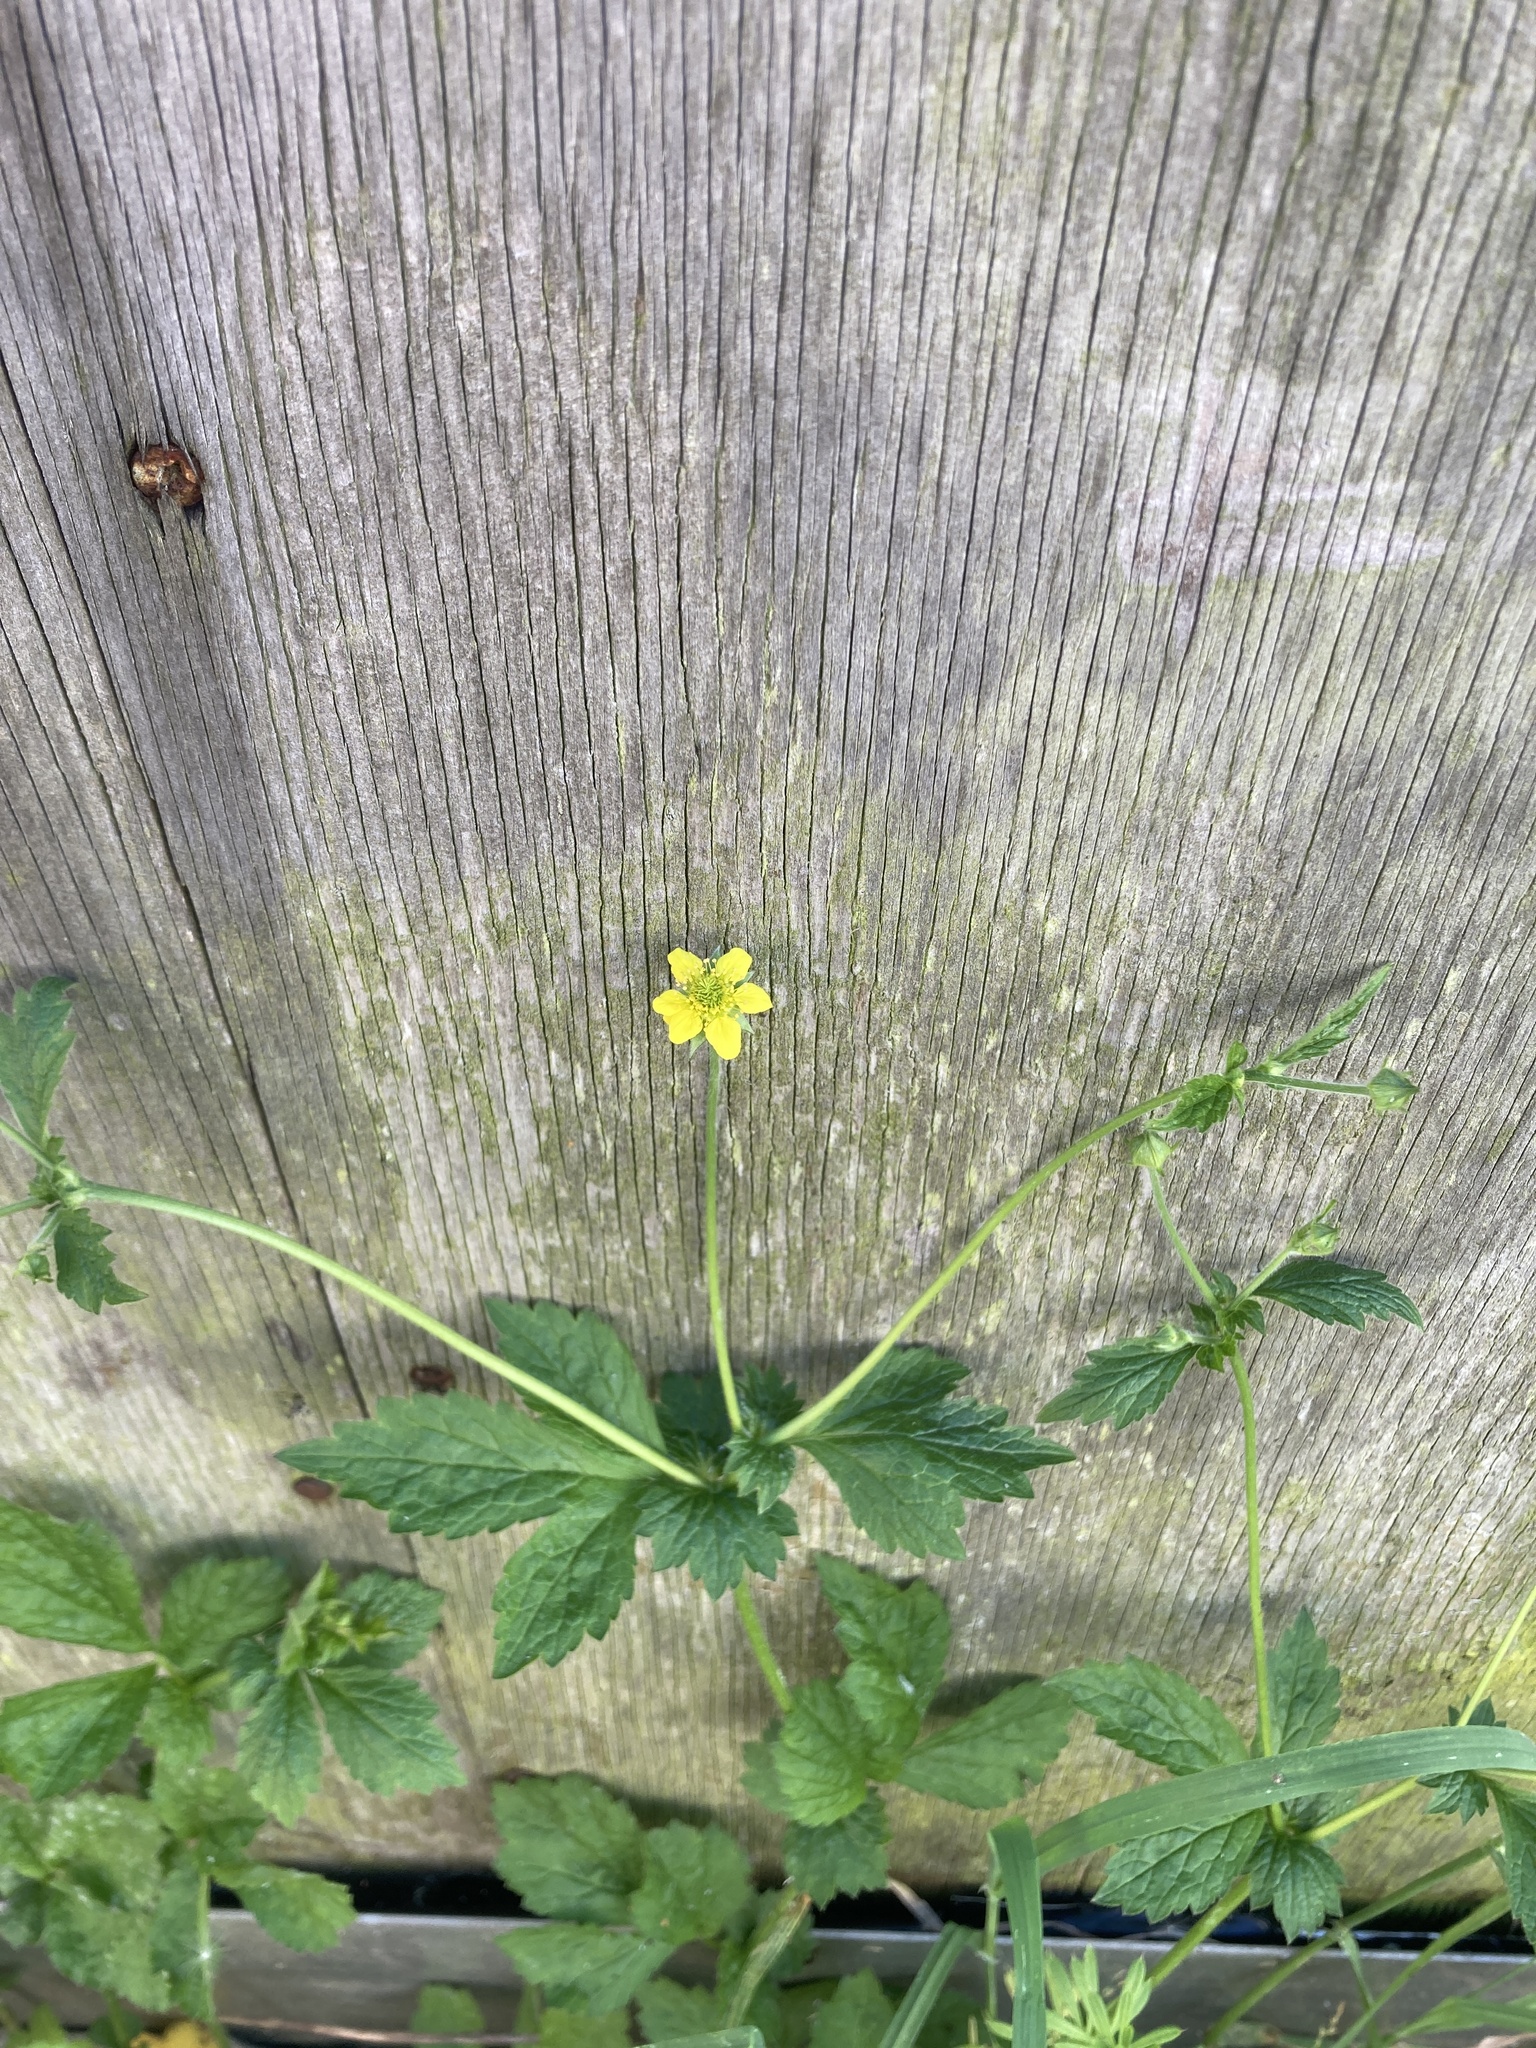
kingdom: Plantae
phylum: Tracheophyta
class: Magnoliopsida
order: Rosales
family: Rosaceae
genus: Geum
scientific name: Geum urbanum
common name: Wood avens
